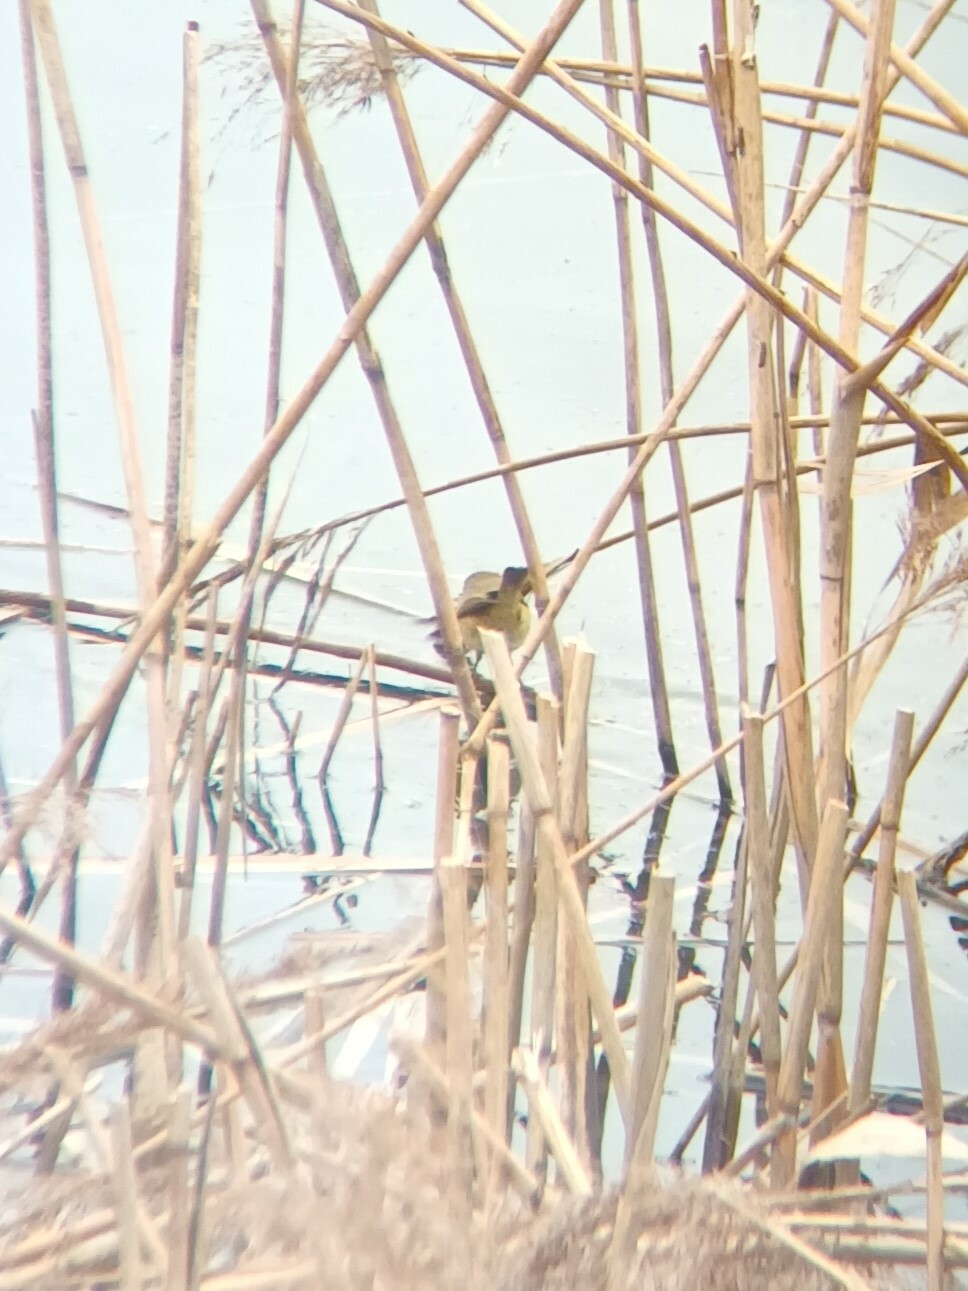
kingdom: Animalia
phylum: Chordata
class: Aves
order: Passeriformes
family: Phylloscopidae
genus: Phylloscopus
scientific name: Phylloscopus collybita
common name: Common chiffchaff
